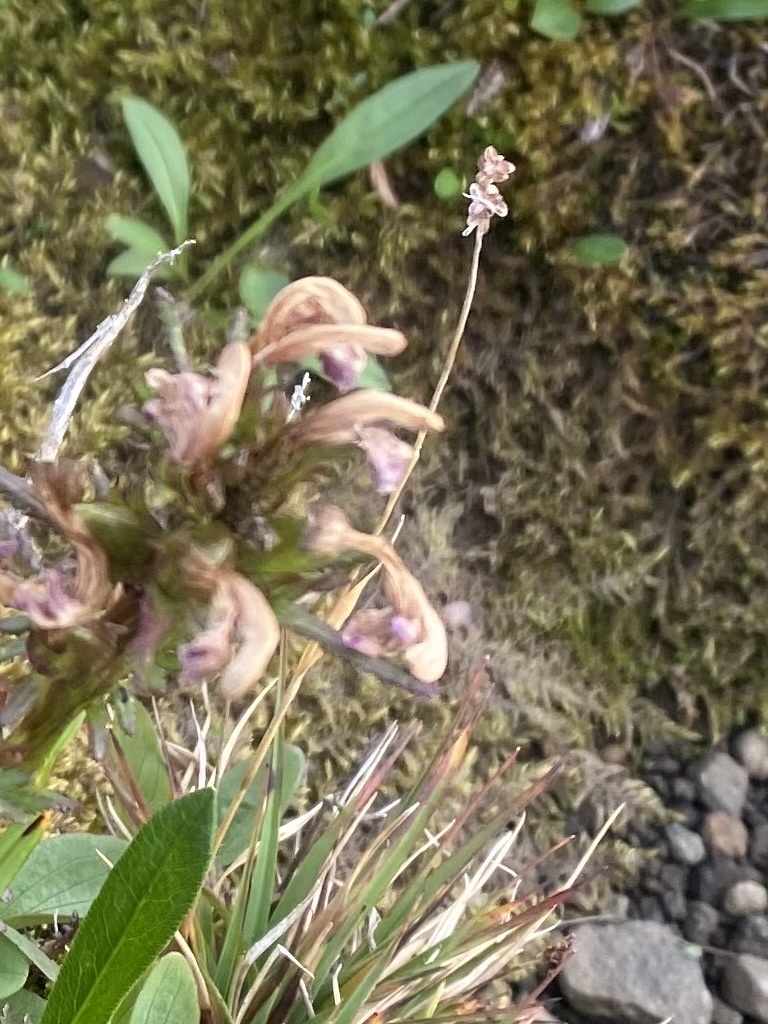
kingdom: Plantae
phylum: Tracheophyta
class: Liliopsida
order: Poales
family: Juncaceae
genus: Luzula
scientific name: Luzula nivalis
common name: Arctic woodrush
